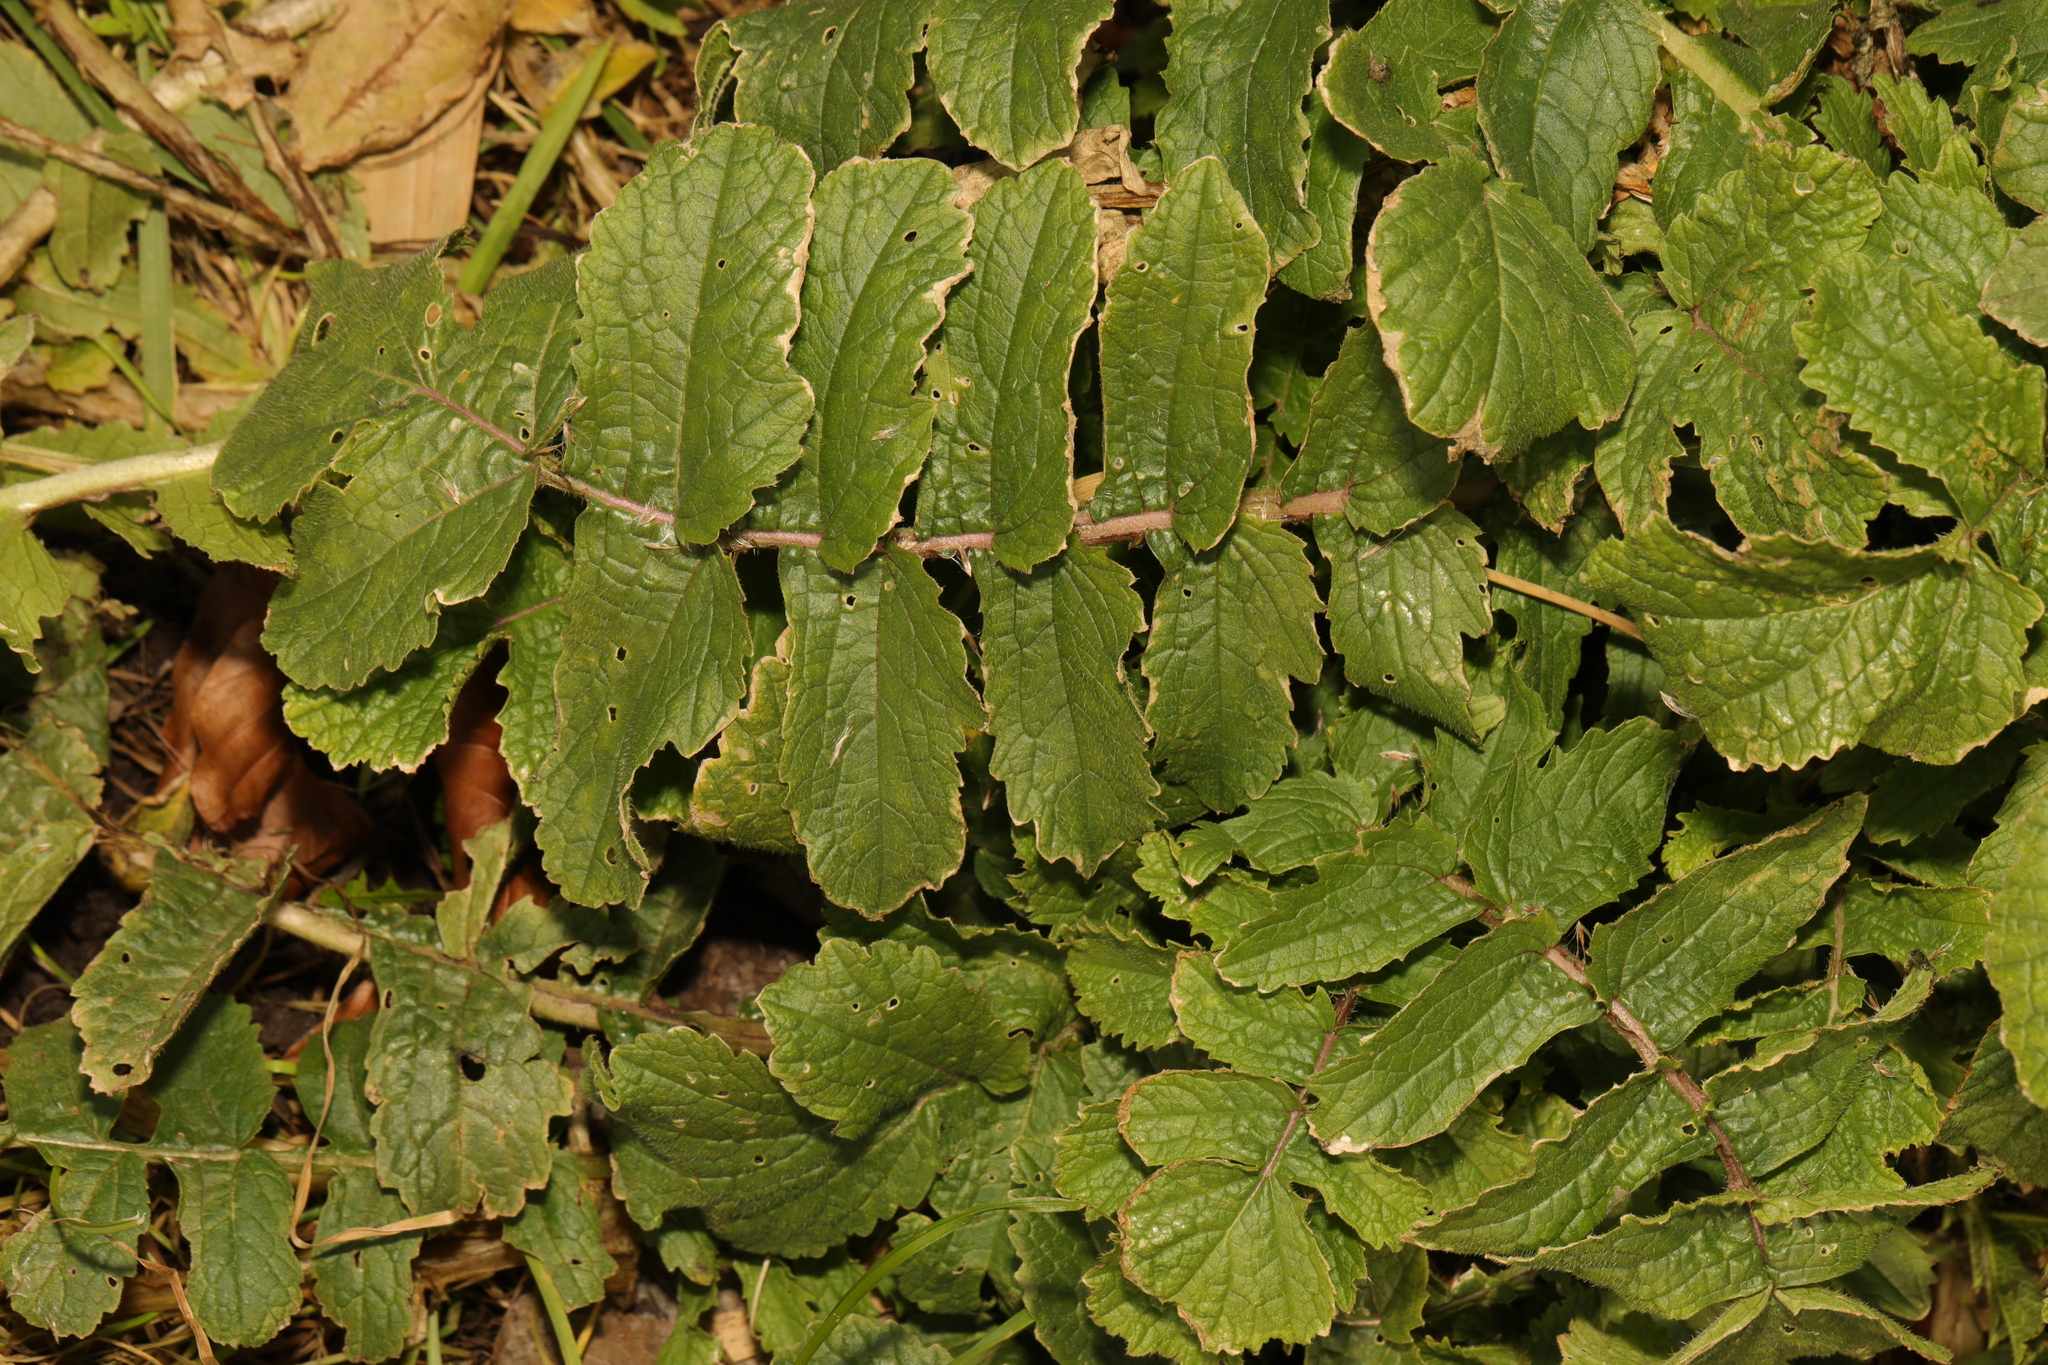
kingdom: Plantae
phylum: Tracheophyta
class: Magnoliopsida
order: Brassicales
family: Brassicaceae
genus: Raphanus
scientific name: Raphanus raphanistrum
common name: Wild radish
